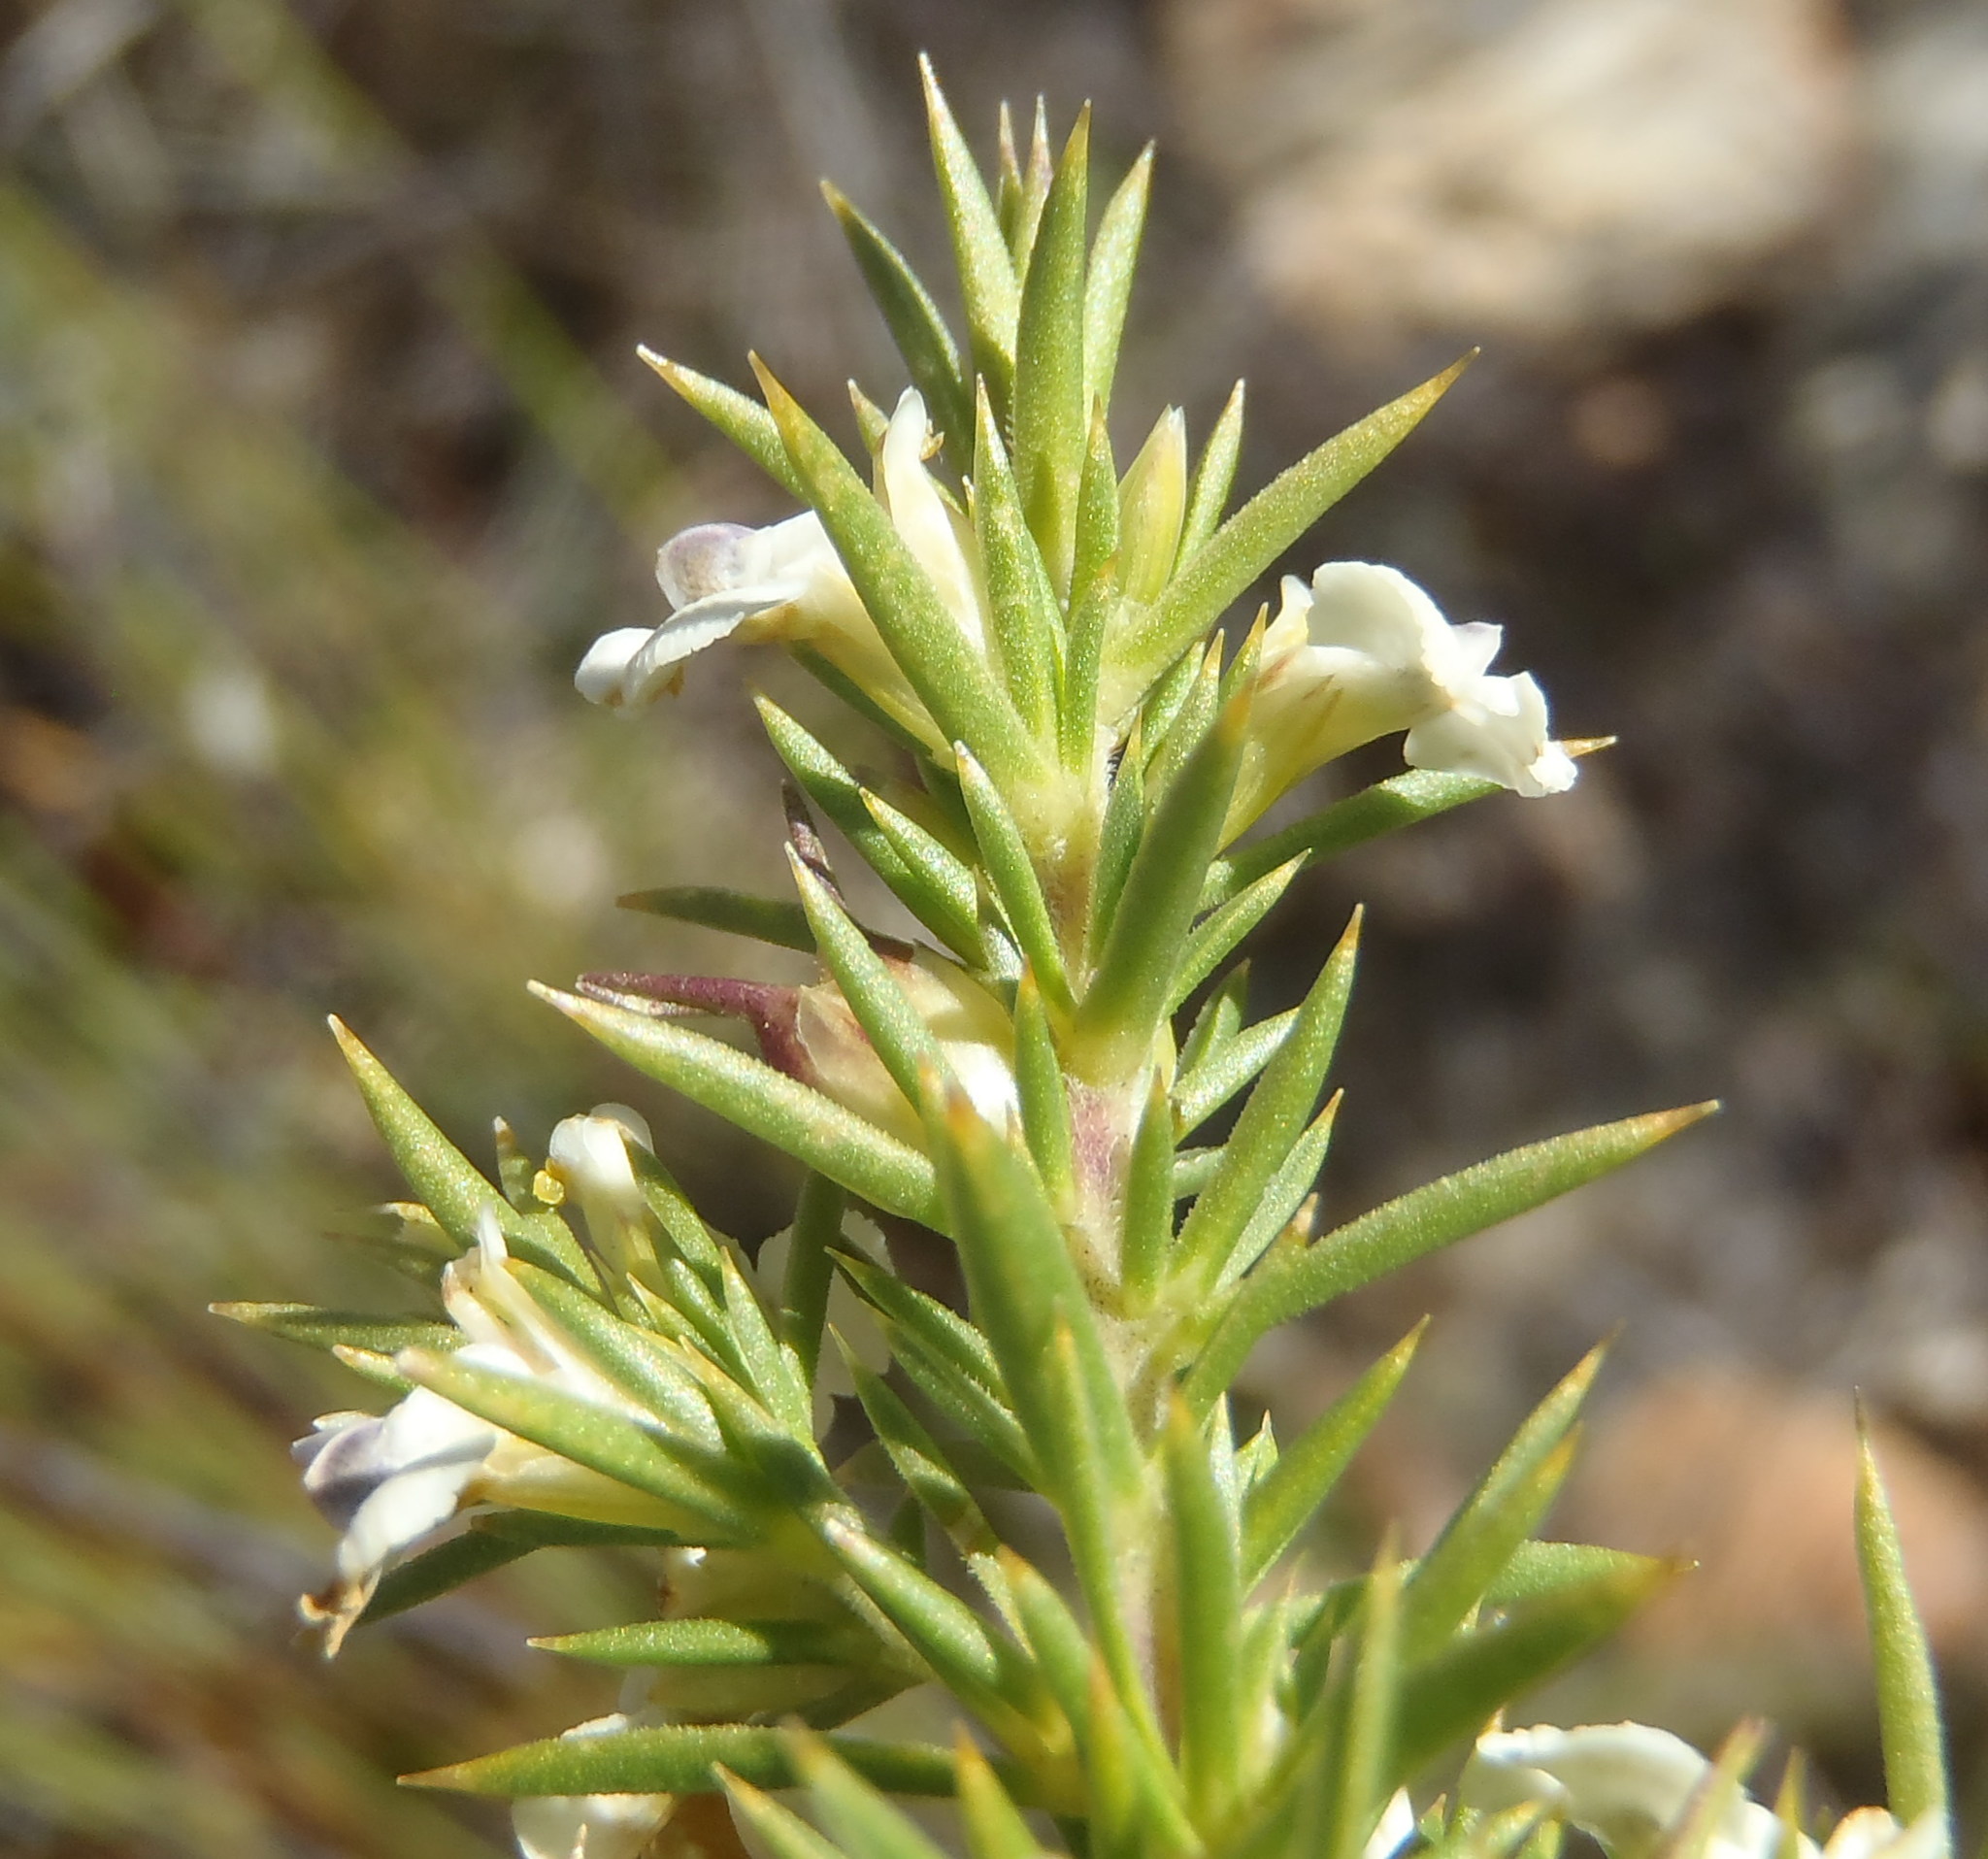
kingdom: Plantae
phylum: Tracheophyta
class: Magnoliopsida
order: Fabales
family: Polygalaceae
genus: Muraltia
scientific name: Muraltia ericifolia
